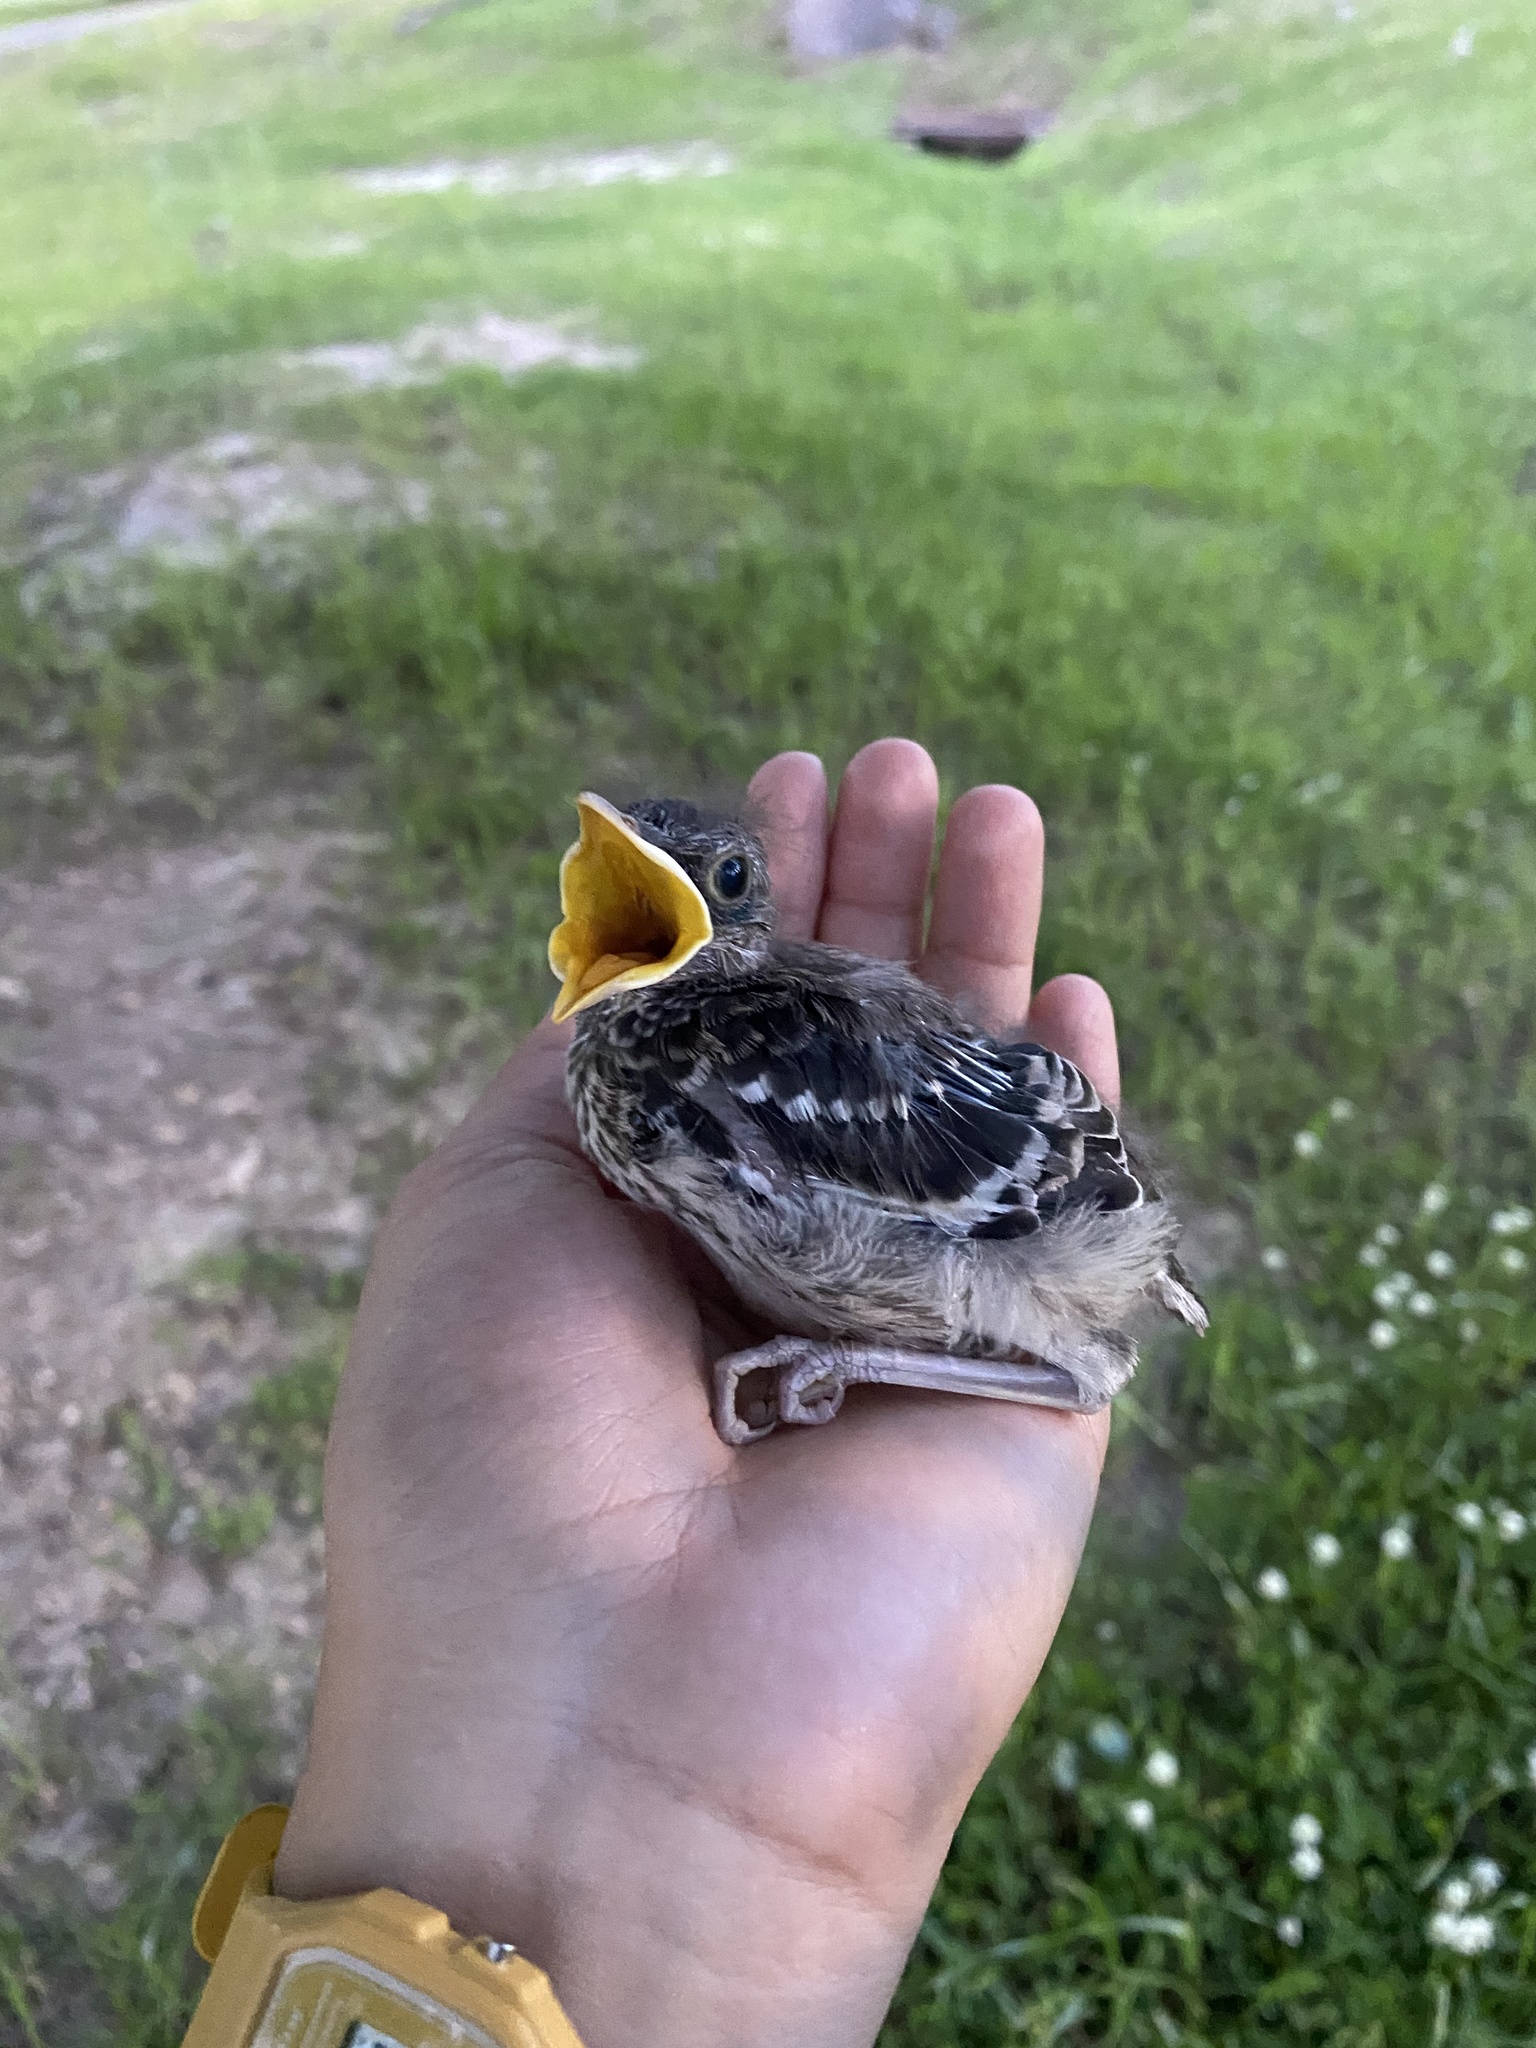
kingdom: Animalia
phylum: Chordata
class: Aves
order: Passeriformes
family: Mimidae
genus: Mimus
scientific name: Mimus polyglottos
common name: Northern mockingbird
